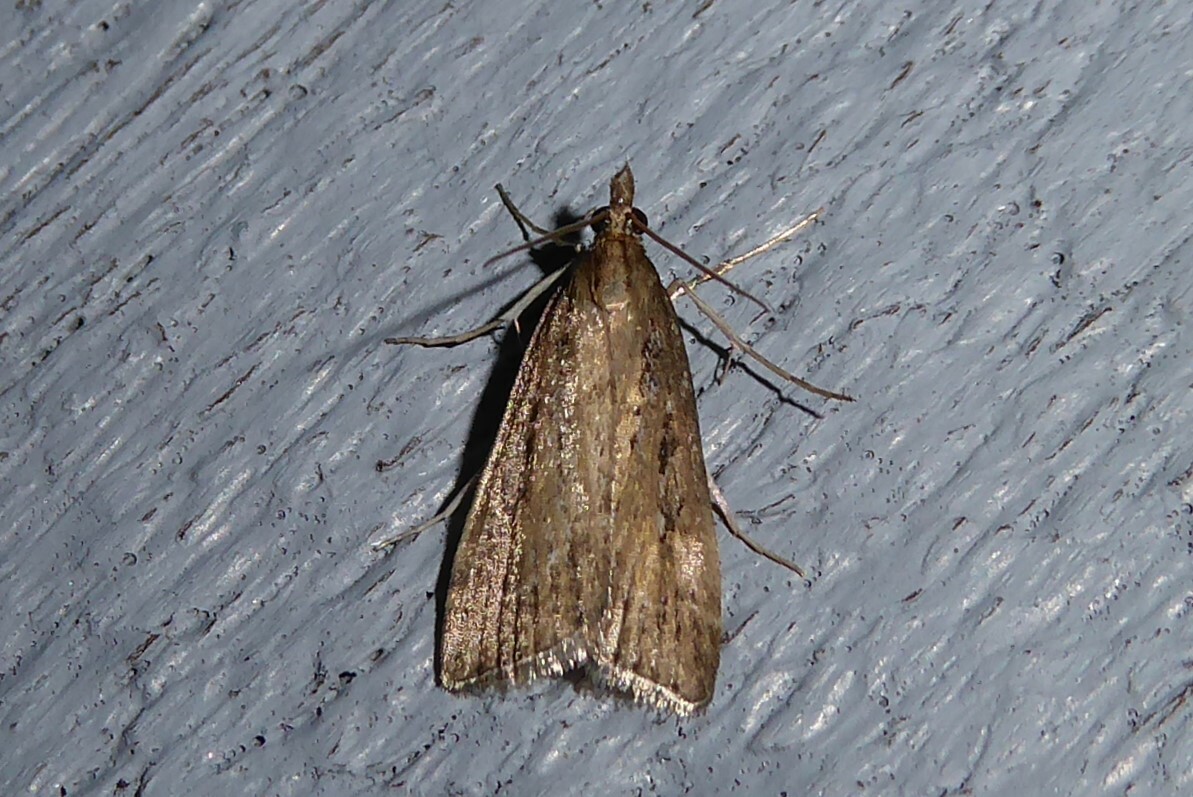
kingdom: Animalia
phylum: Arthropoda
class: Insecta
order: Lepidoptera
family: Crambidae
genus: Eudonia
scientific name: Eudonia octophora
